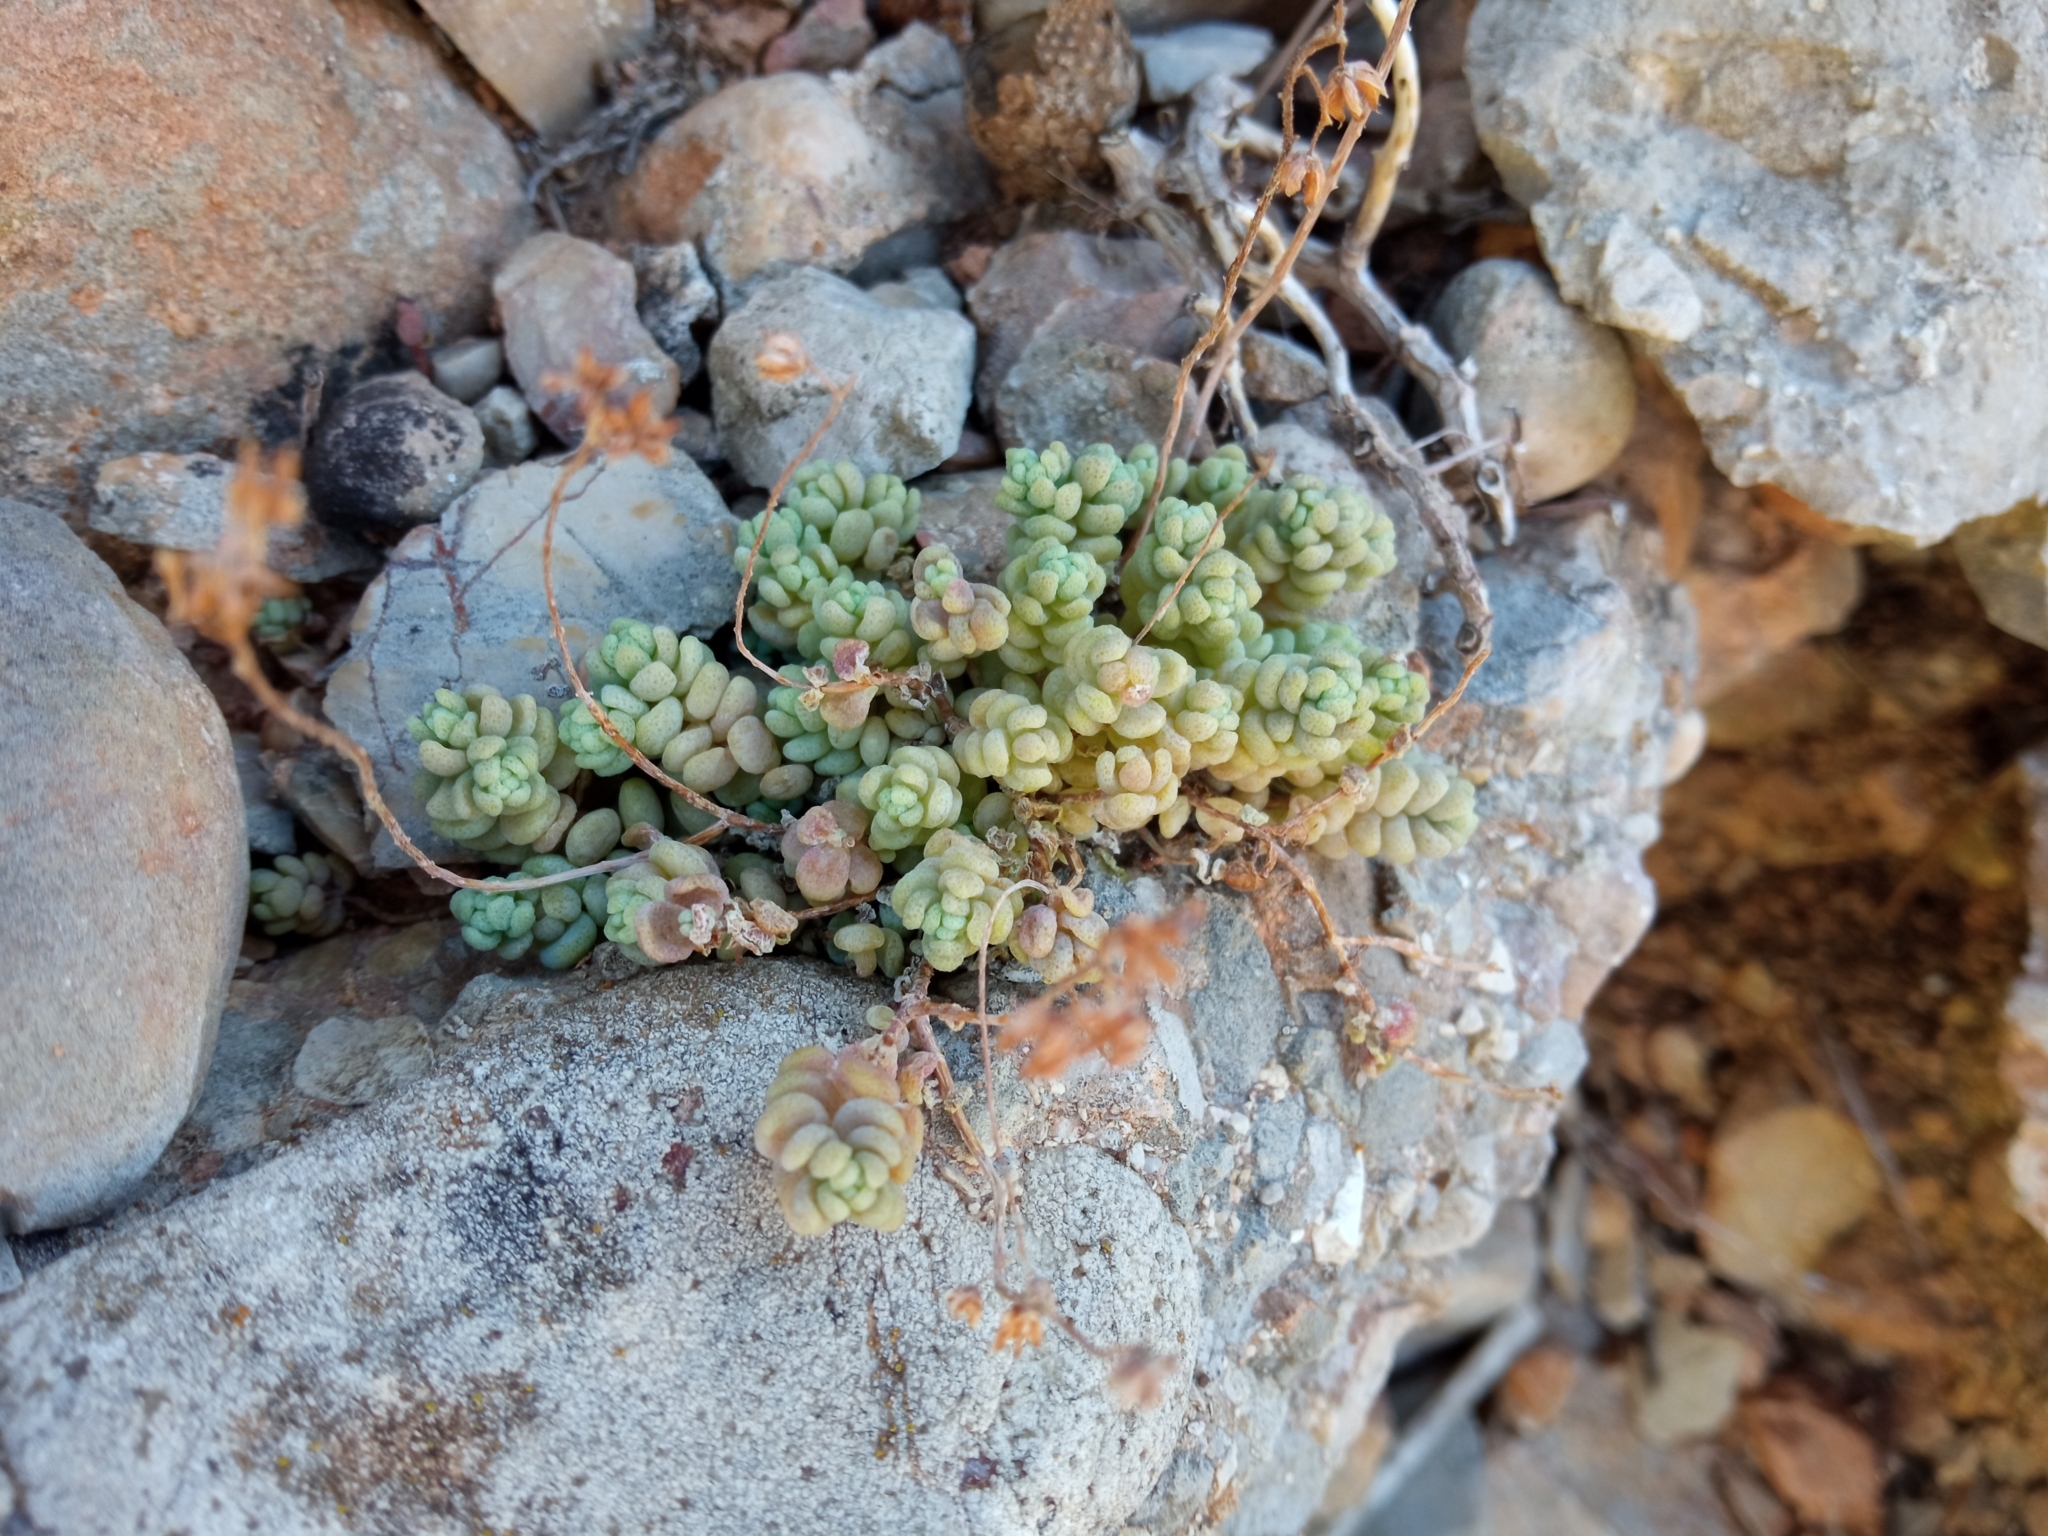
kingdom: Plantae
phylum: Tracheophyta
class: Magnoliopsida
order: Saxifragales
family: Crassulaceae
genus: Sedum
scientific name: Sedum dasyphyllum
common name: Thick-leaf stonecrop
